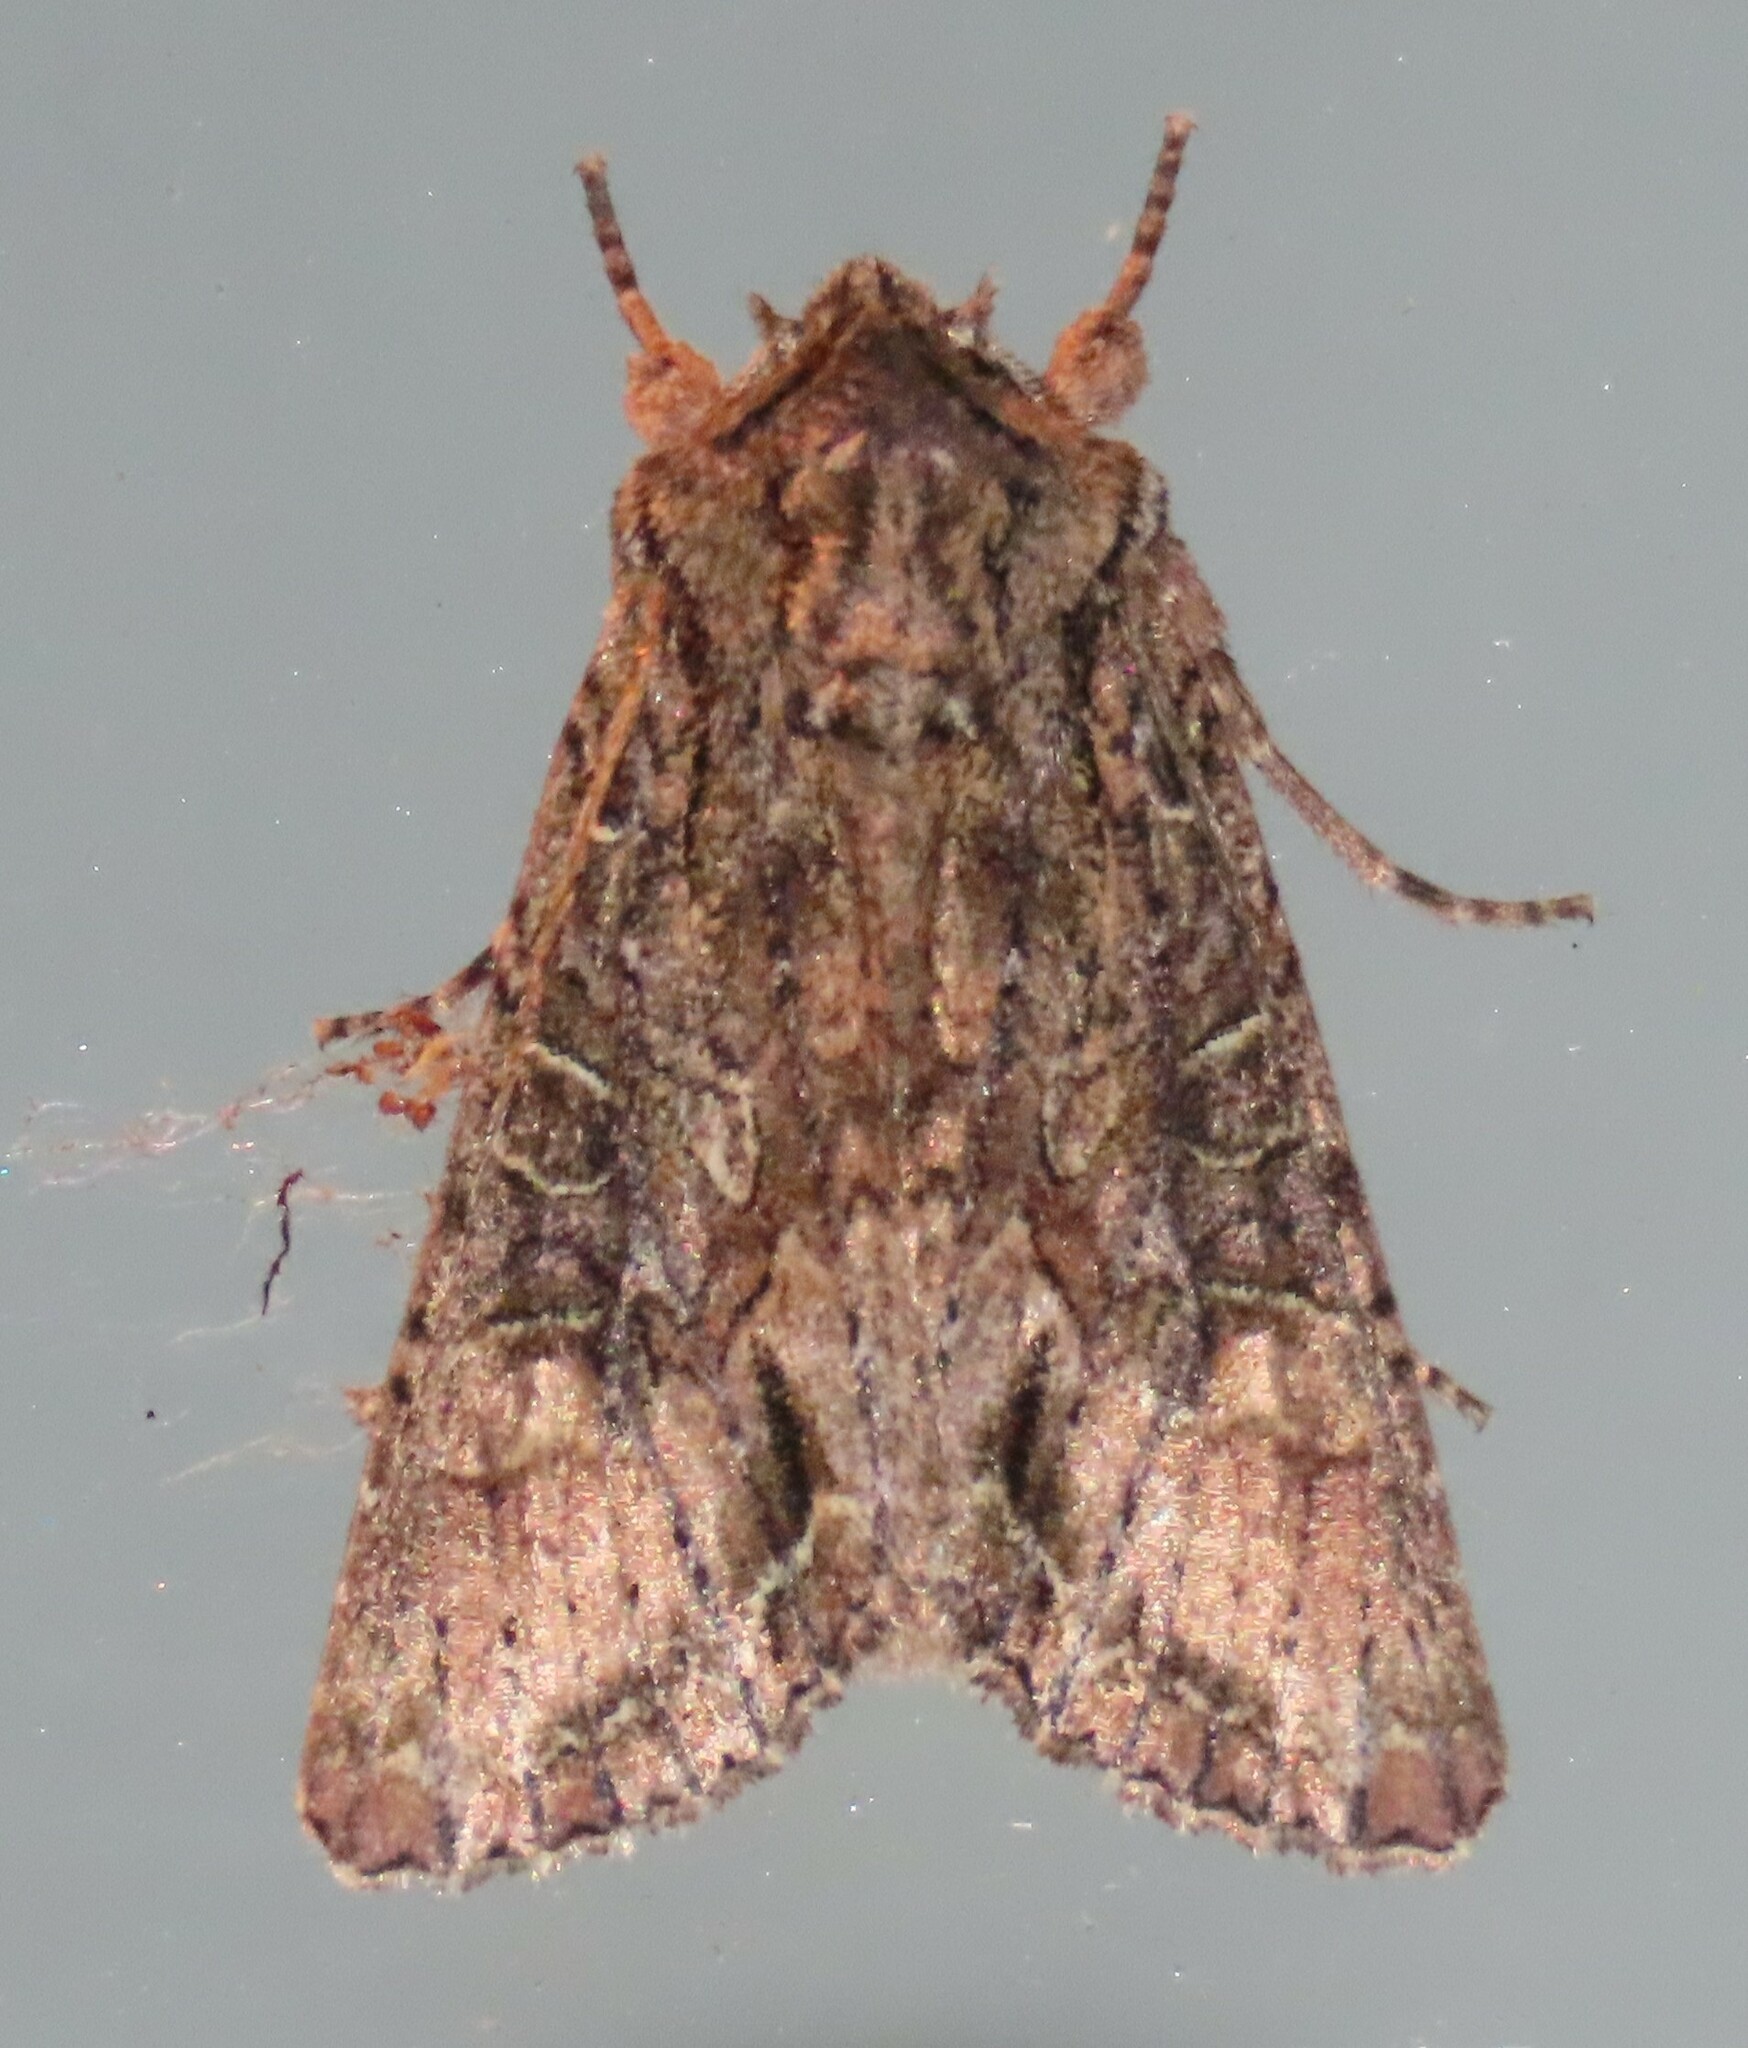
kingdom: Animalia
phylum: Arthropoda
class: Insecta
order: Lepidoptera
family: Noctuidae
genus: Ichneutica
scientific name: Ichneutica mutans
